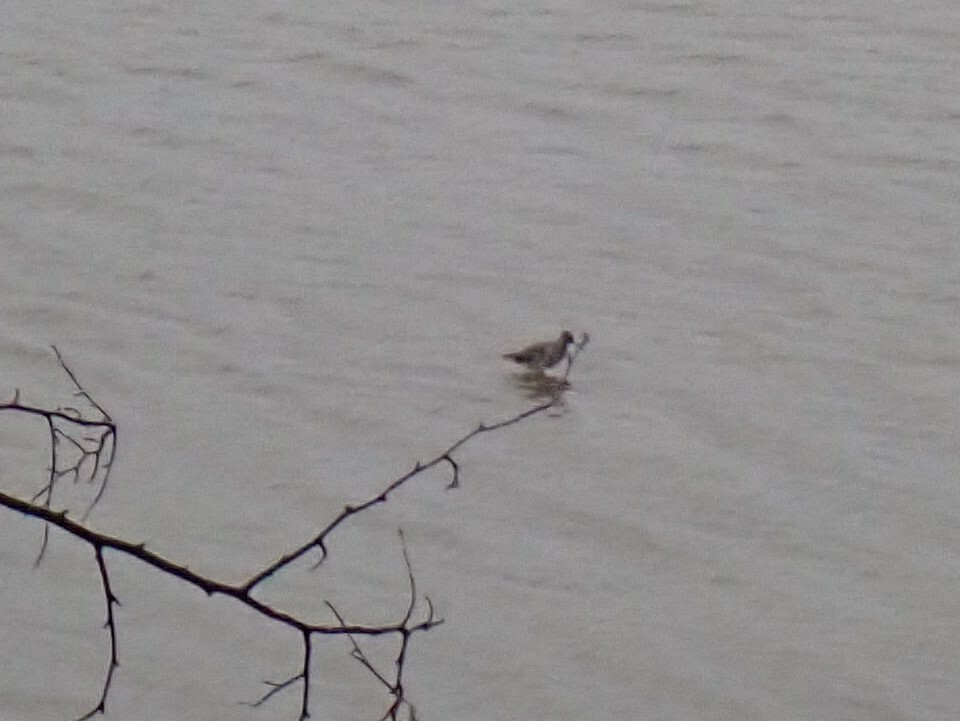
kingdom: Animalia
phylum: Chordata
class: Aves
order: Charadriiformes
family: Scolopacidae
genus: Tringa
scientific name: Tringa totanus
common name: Common redshank
